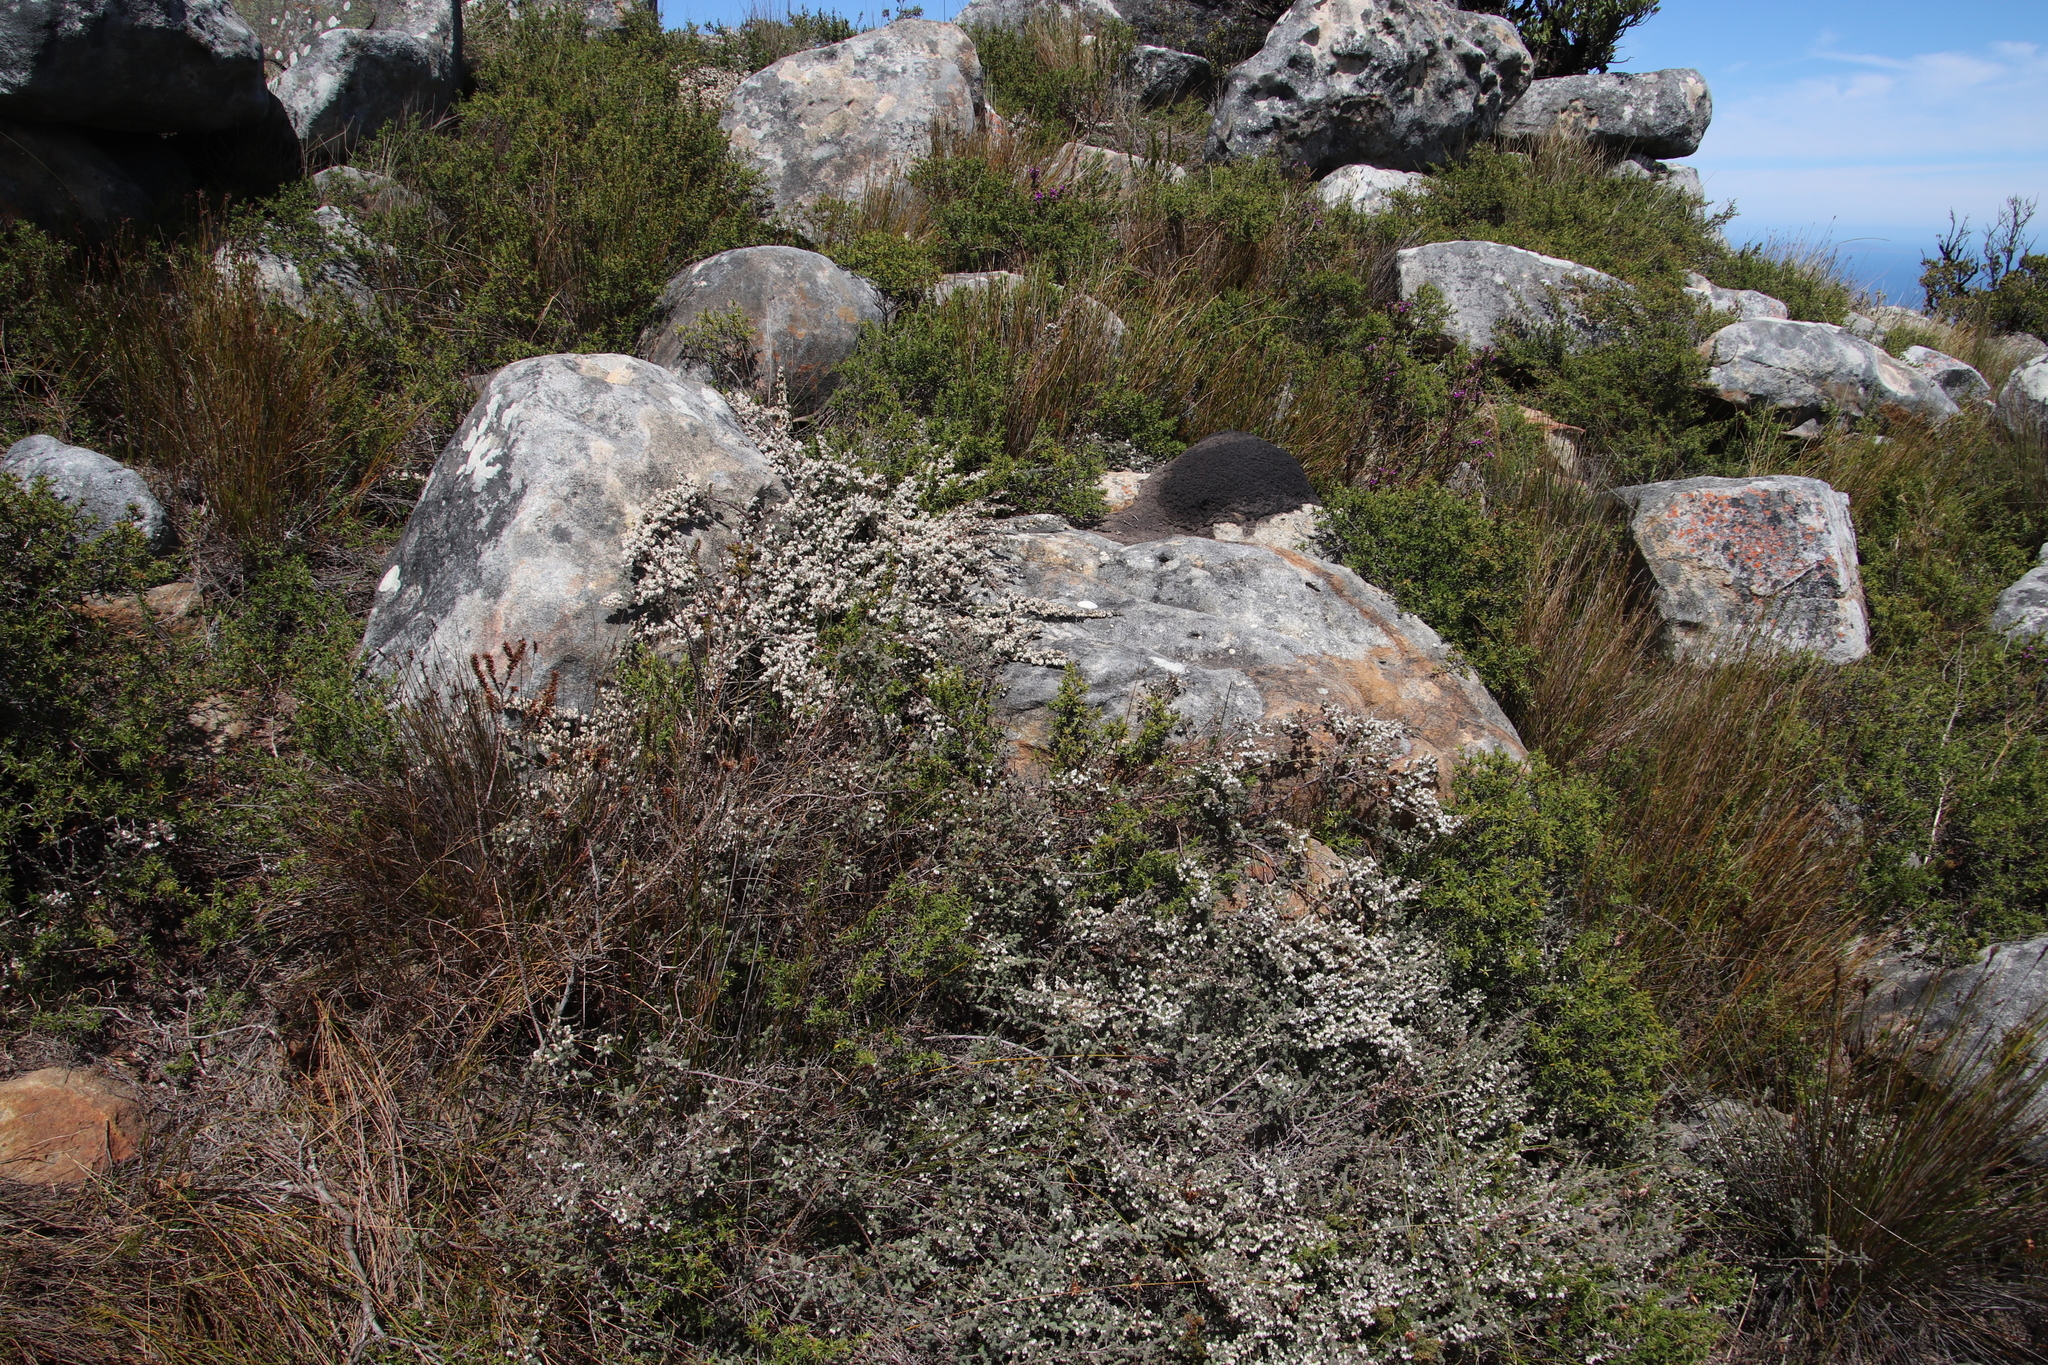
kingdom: Plantae
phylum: Tracheophyta
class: Magnoliopsida
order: Ericales
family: Ericaceae
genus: Erica
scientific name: Erica totta
